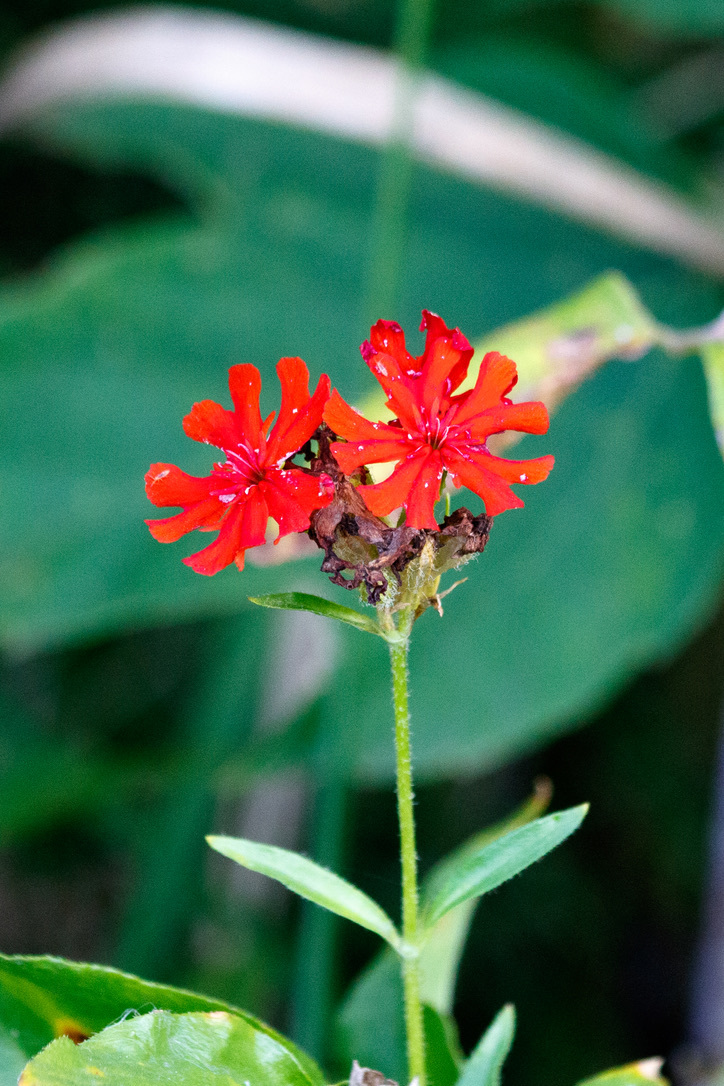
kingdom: Plantae
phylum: Tracheophyta
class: Magnoliopsida
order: Caryophyllales
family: Caryophyllaceae
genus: Silene
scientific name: Silene chalcedonica
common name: Maltese-cross
